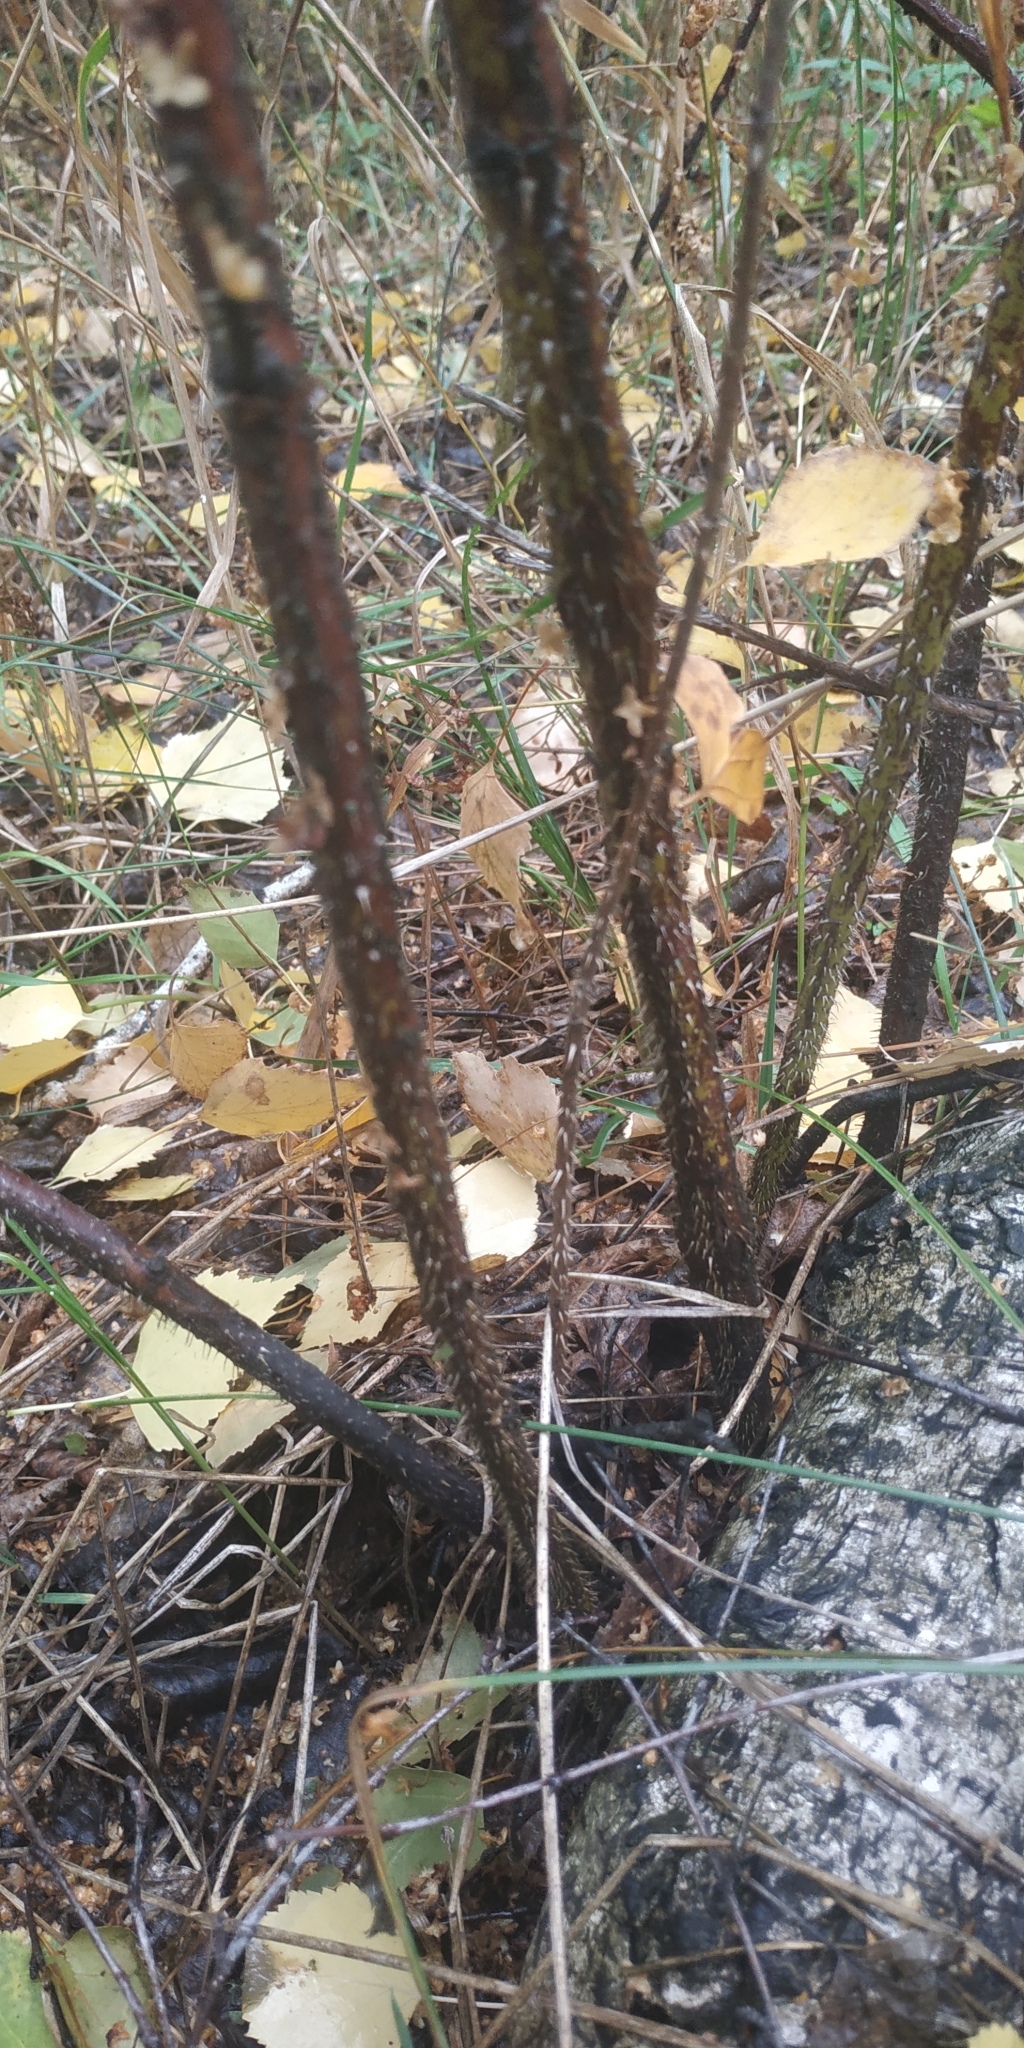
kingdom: Plantae
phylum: Tracheophyta
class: Magnoliopsida
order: Rosales
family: Rosaceae
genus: Rosa
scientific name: Rosa
